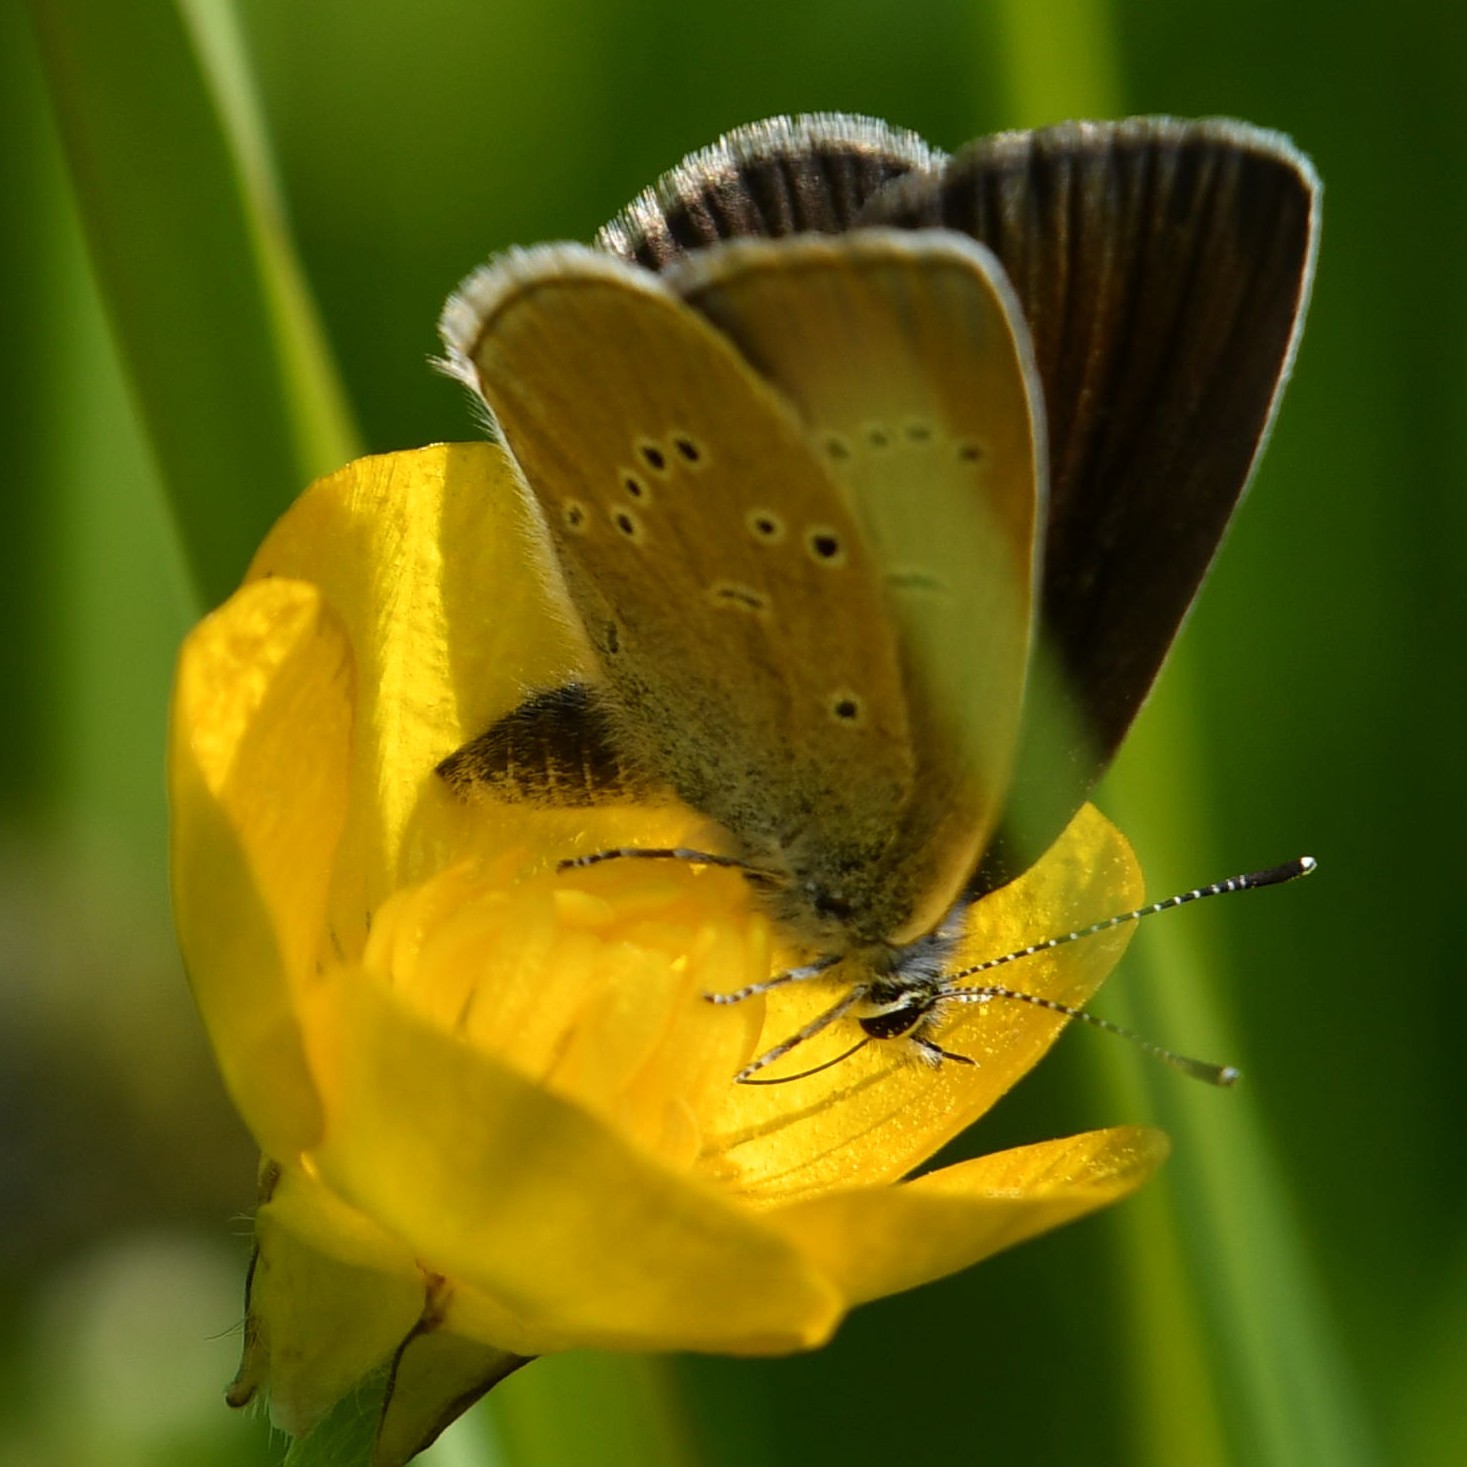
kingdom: Animalia
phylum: Arthropoda
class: Insecta
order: Lepidoptera
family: Lycaenidae
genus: Cyaniris
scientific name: Cyaniris semiargus
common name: Mazarine blue
